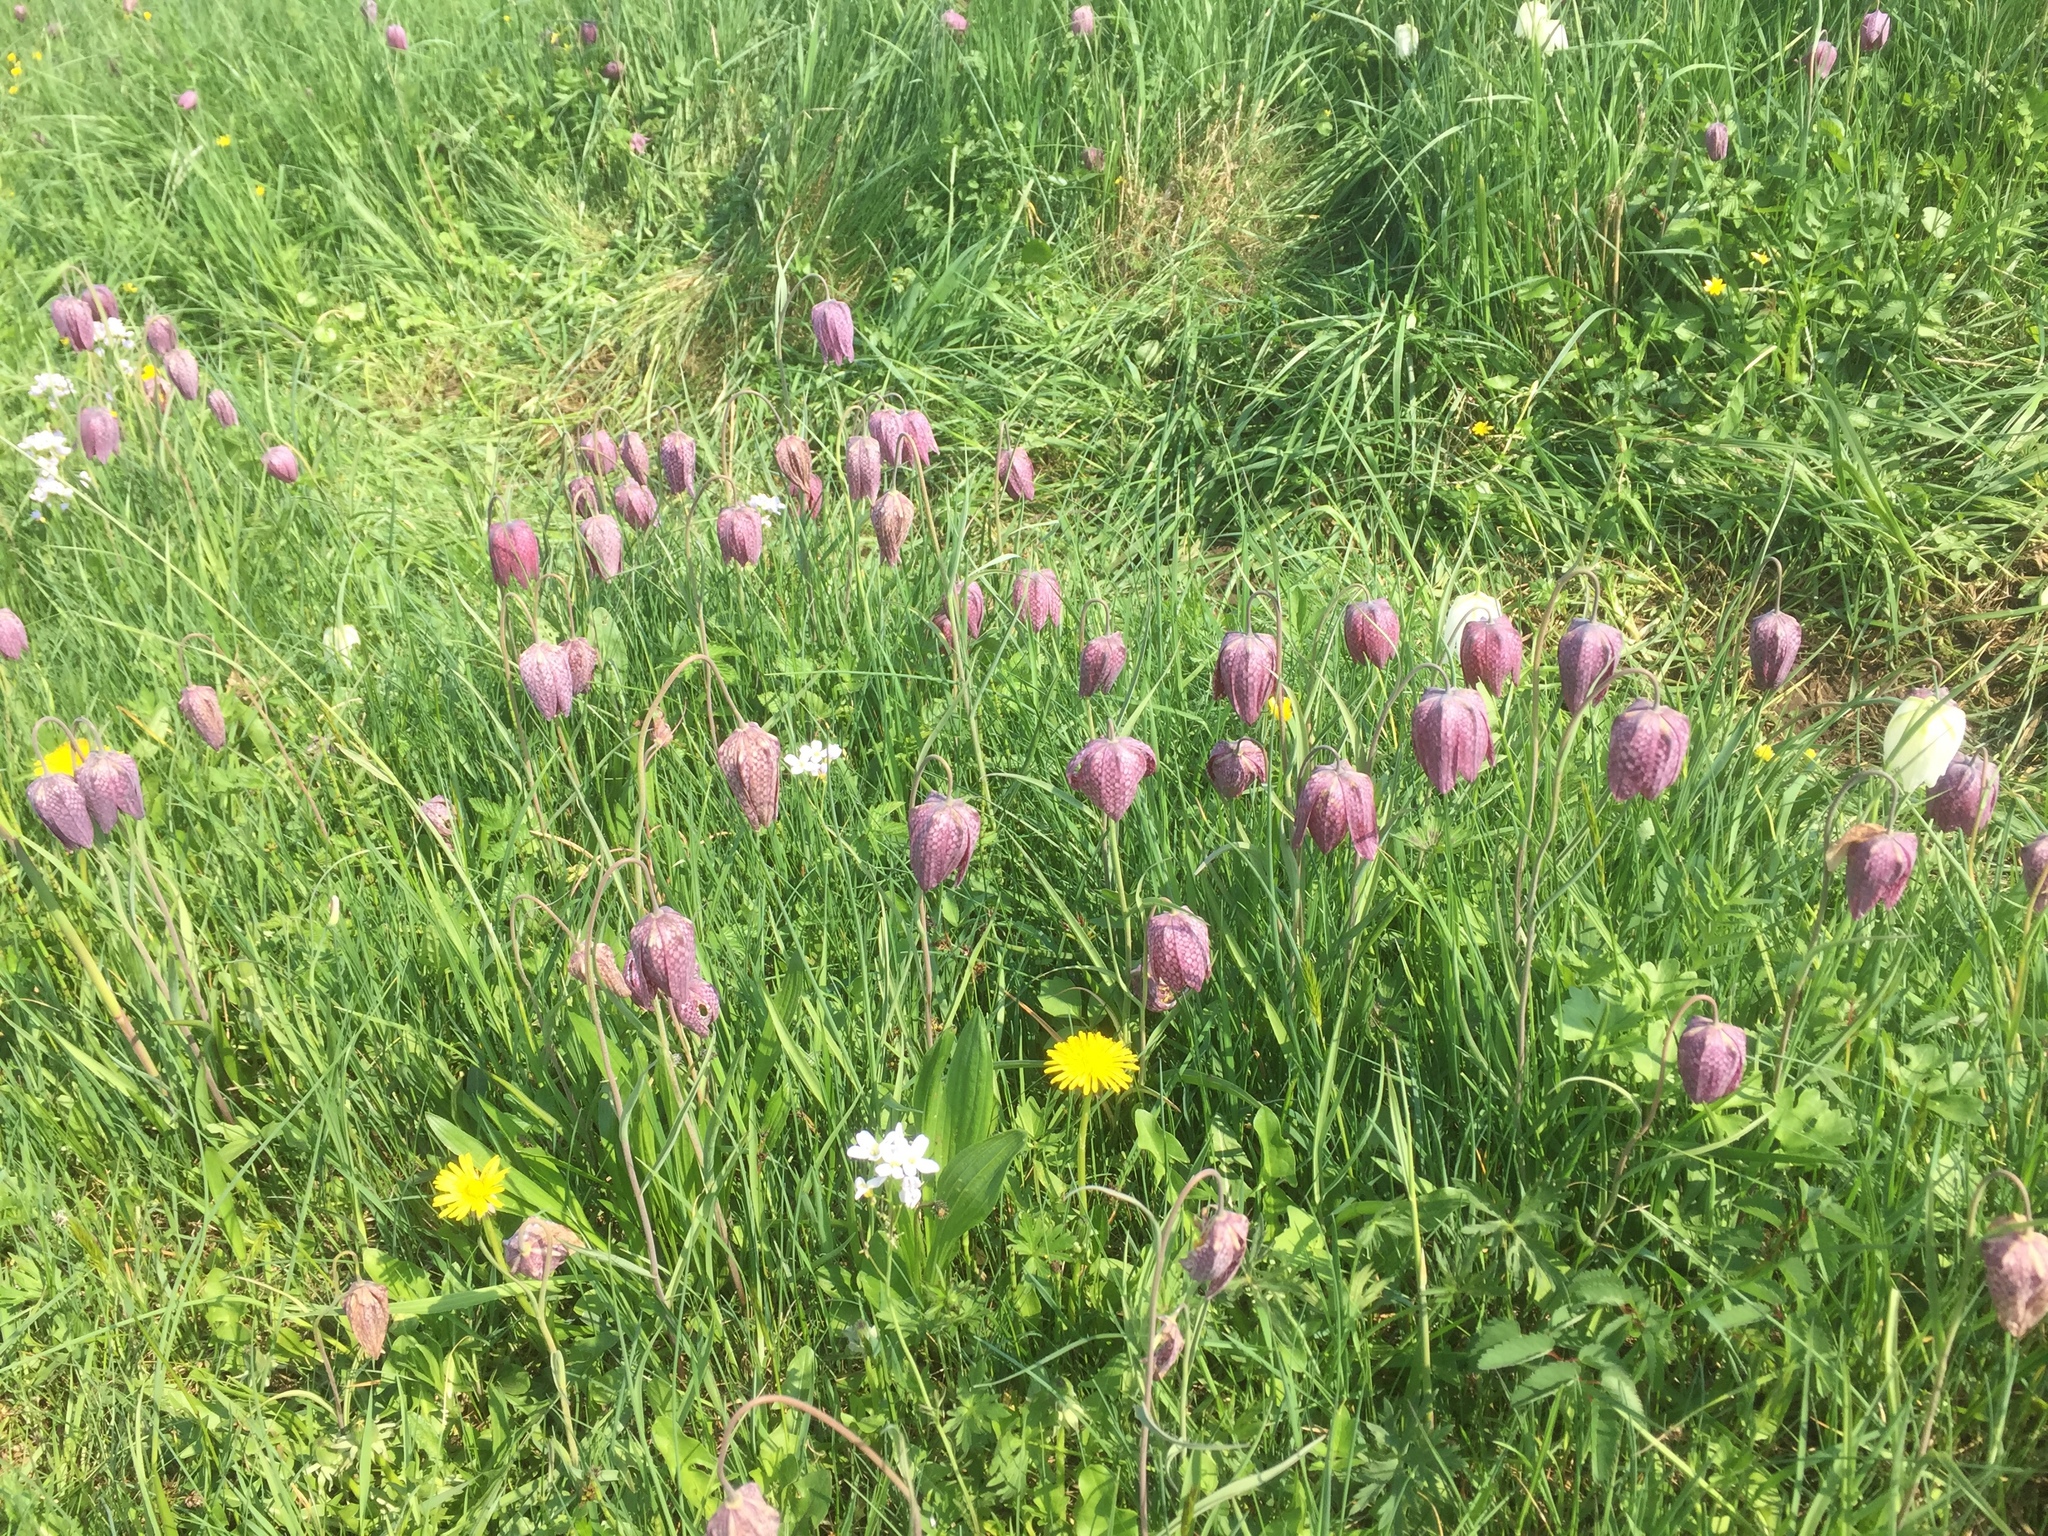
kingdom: Plantae
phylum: Tracheophyta
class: Liliopsida
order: Liliales
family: Liliaceae
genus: Fritillaria
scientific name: Fritillaria meleagris
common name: Fritillary
